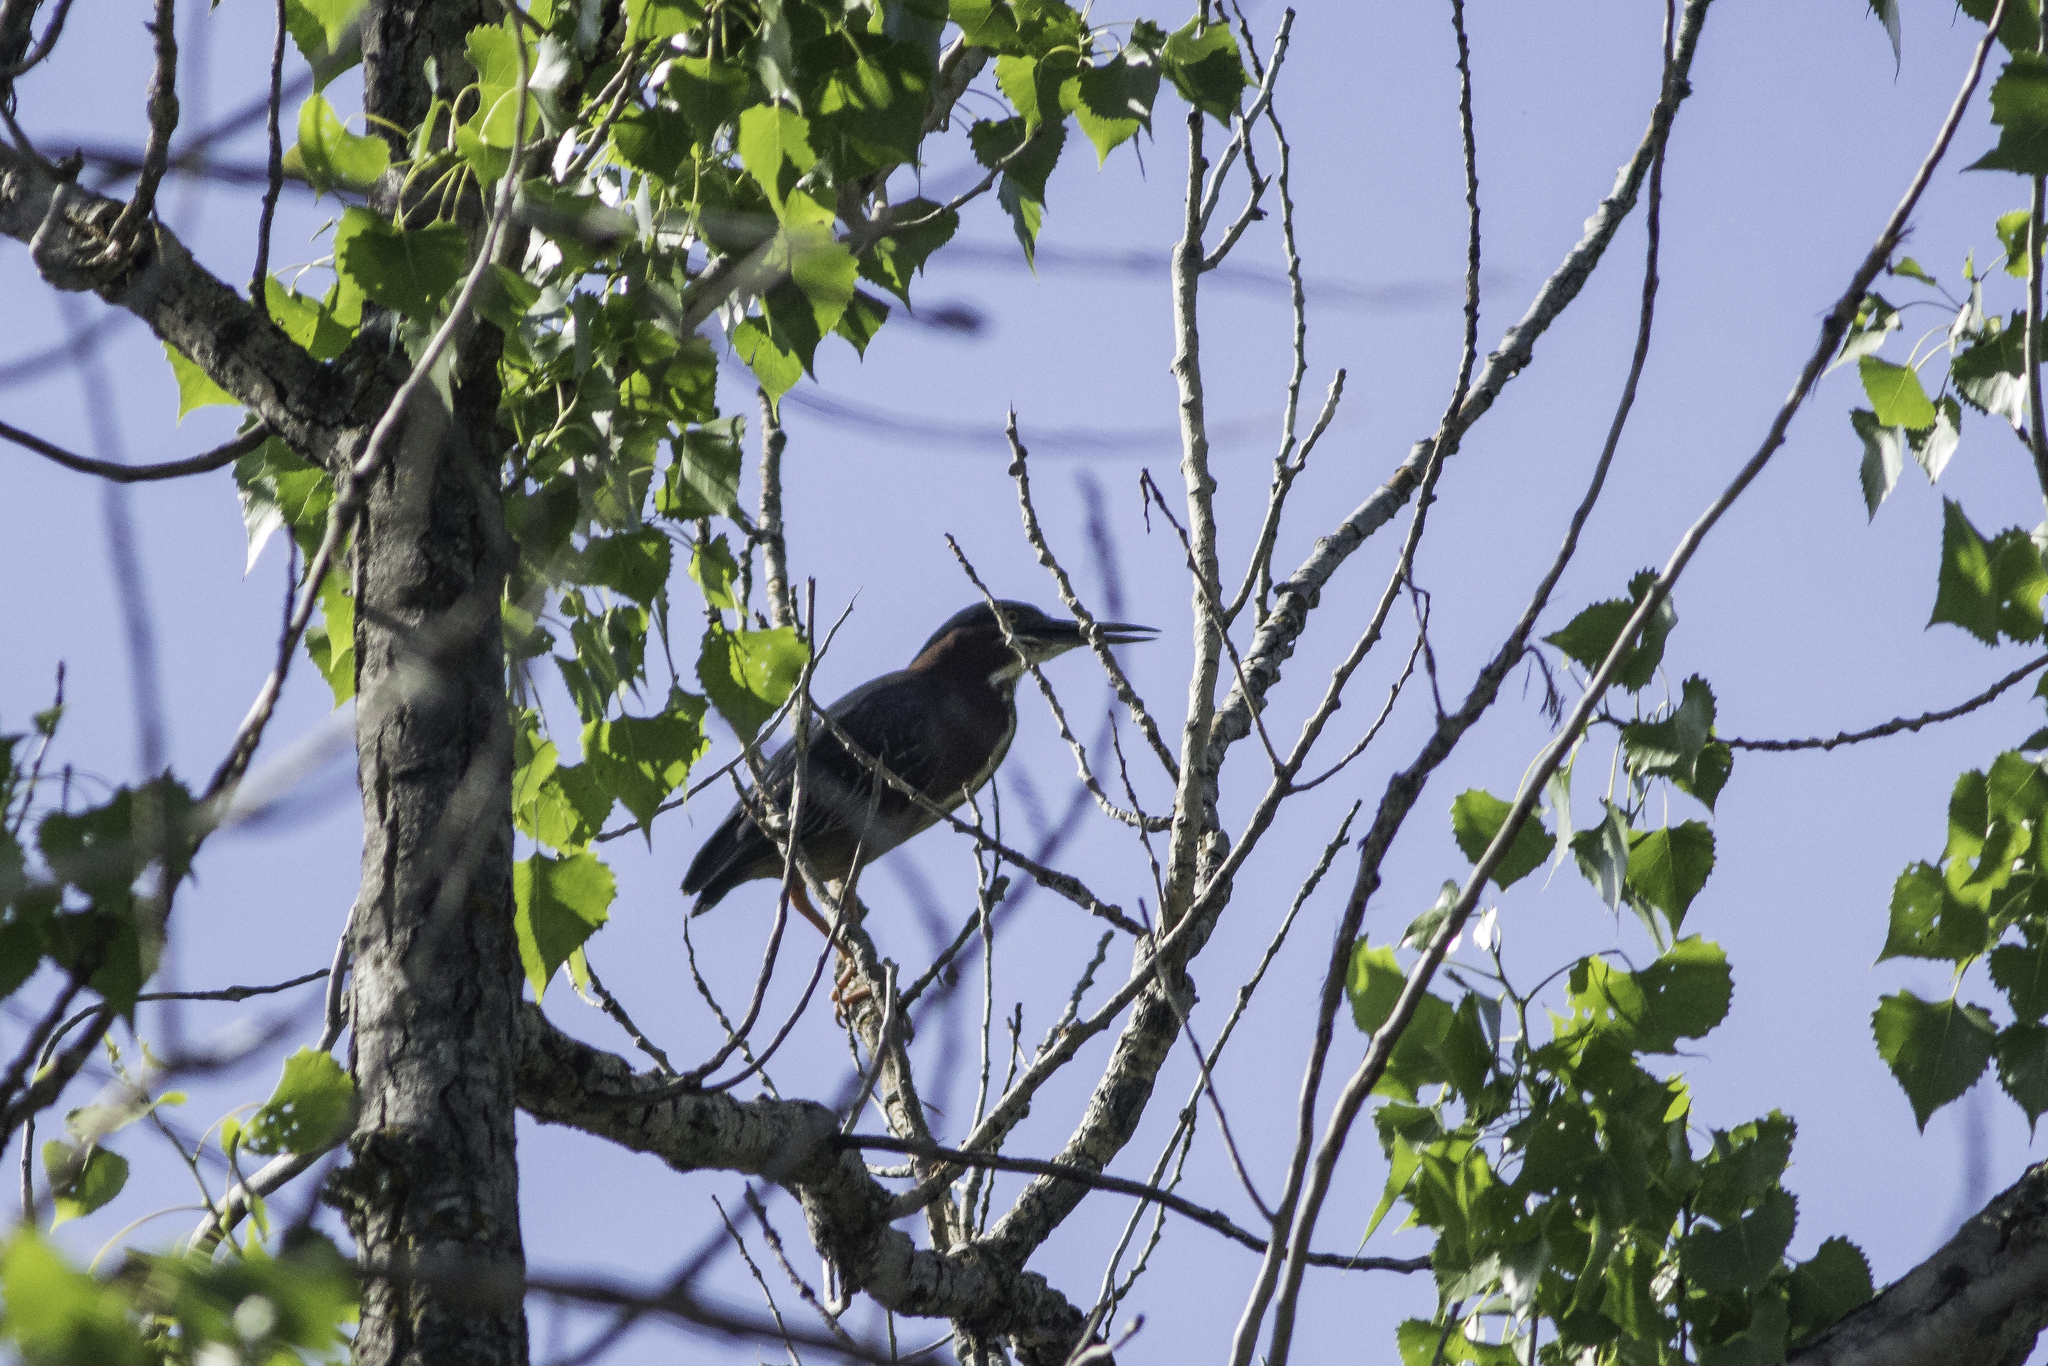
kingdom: Animalia
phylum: Chordata
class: Aves
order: Pelecaniformes
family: Ardeidae
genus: Butorides
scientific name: Butorides virescens
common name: Green heron
